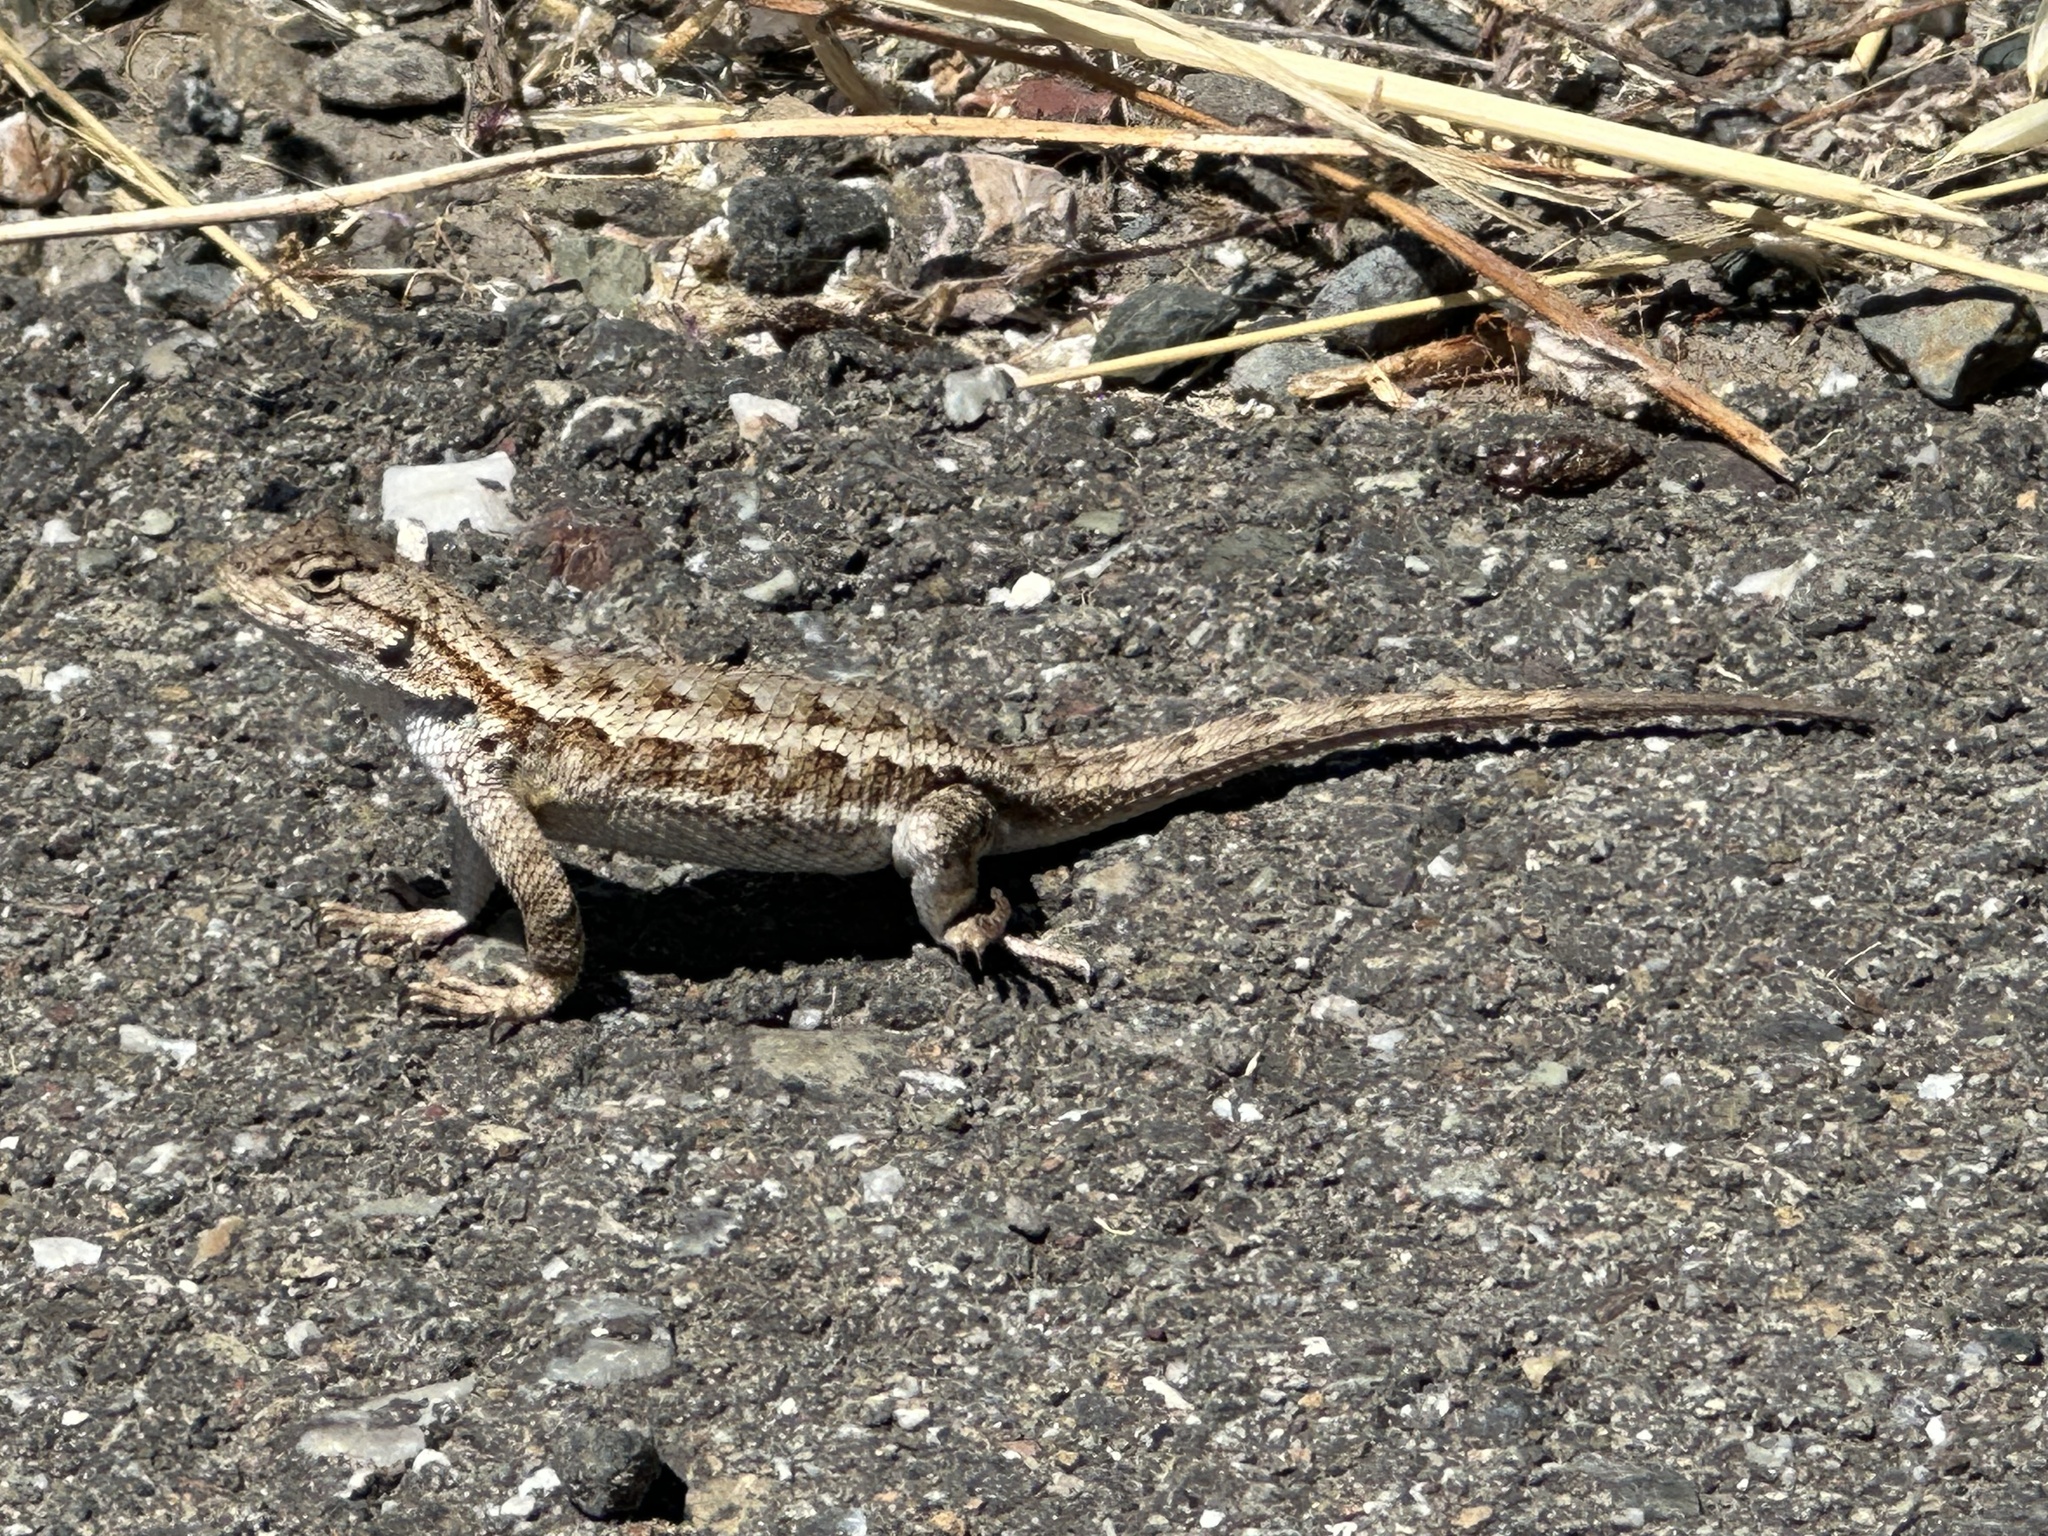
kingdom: Animalia
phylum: Chordata
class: Squamata
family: Phrynosomatidae
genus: Sceloporus
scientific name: Sceloporus occidentalis
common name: Western fence lizard
